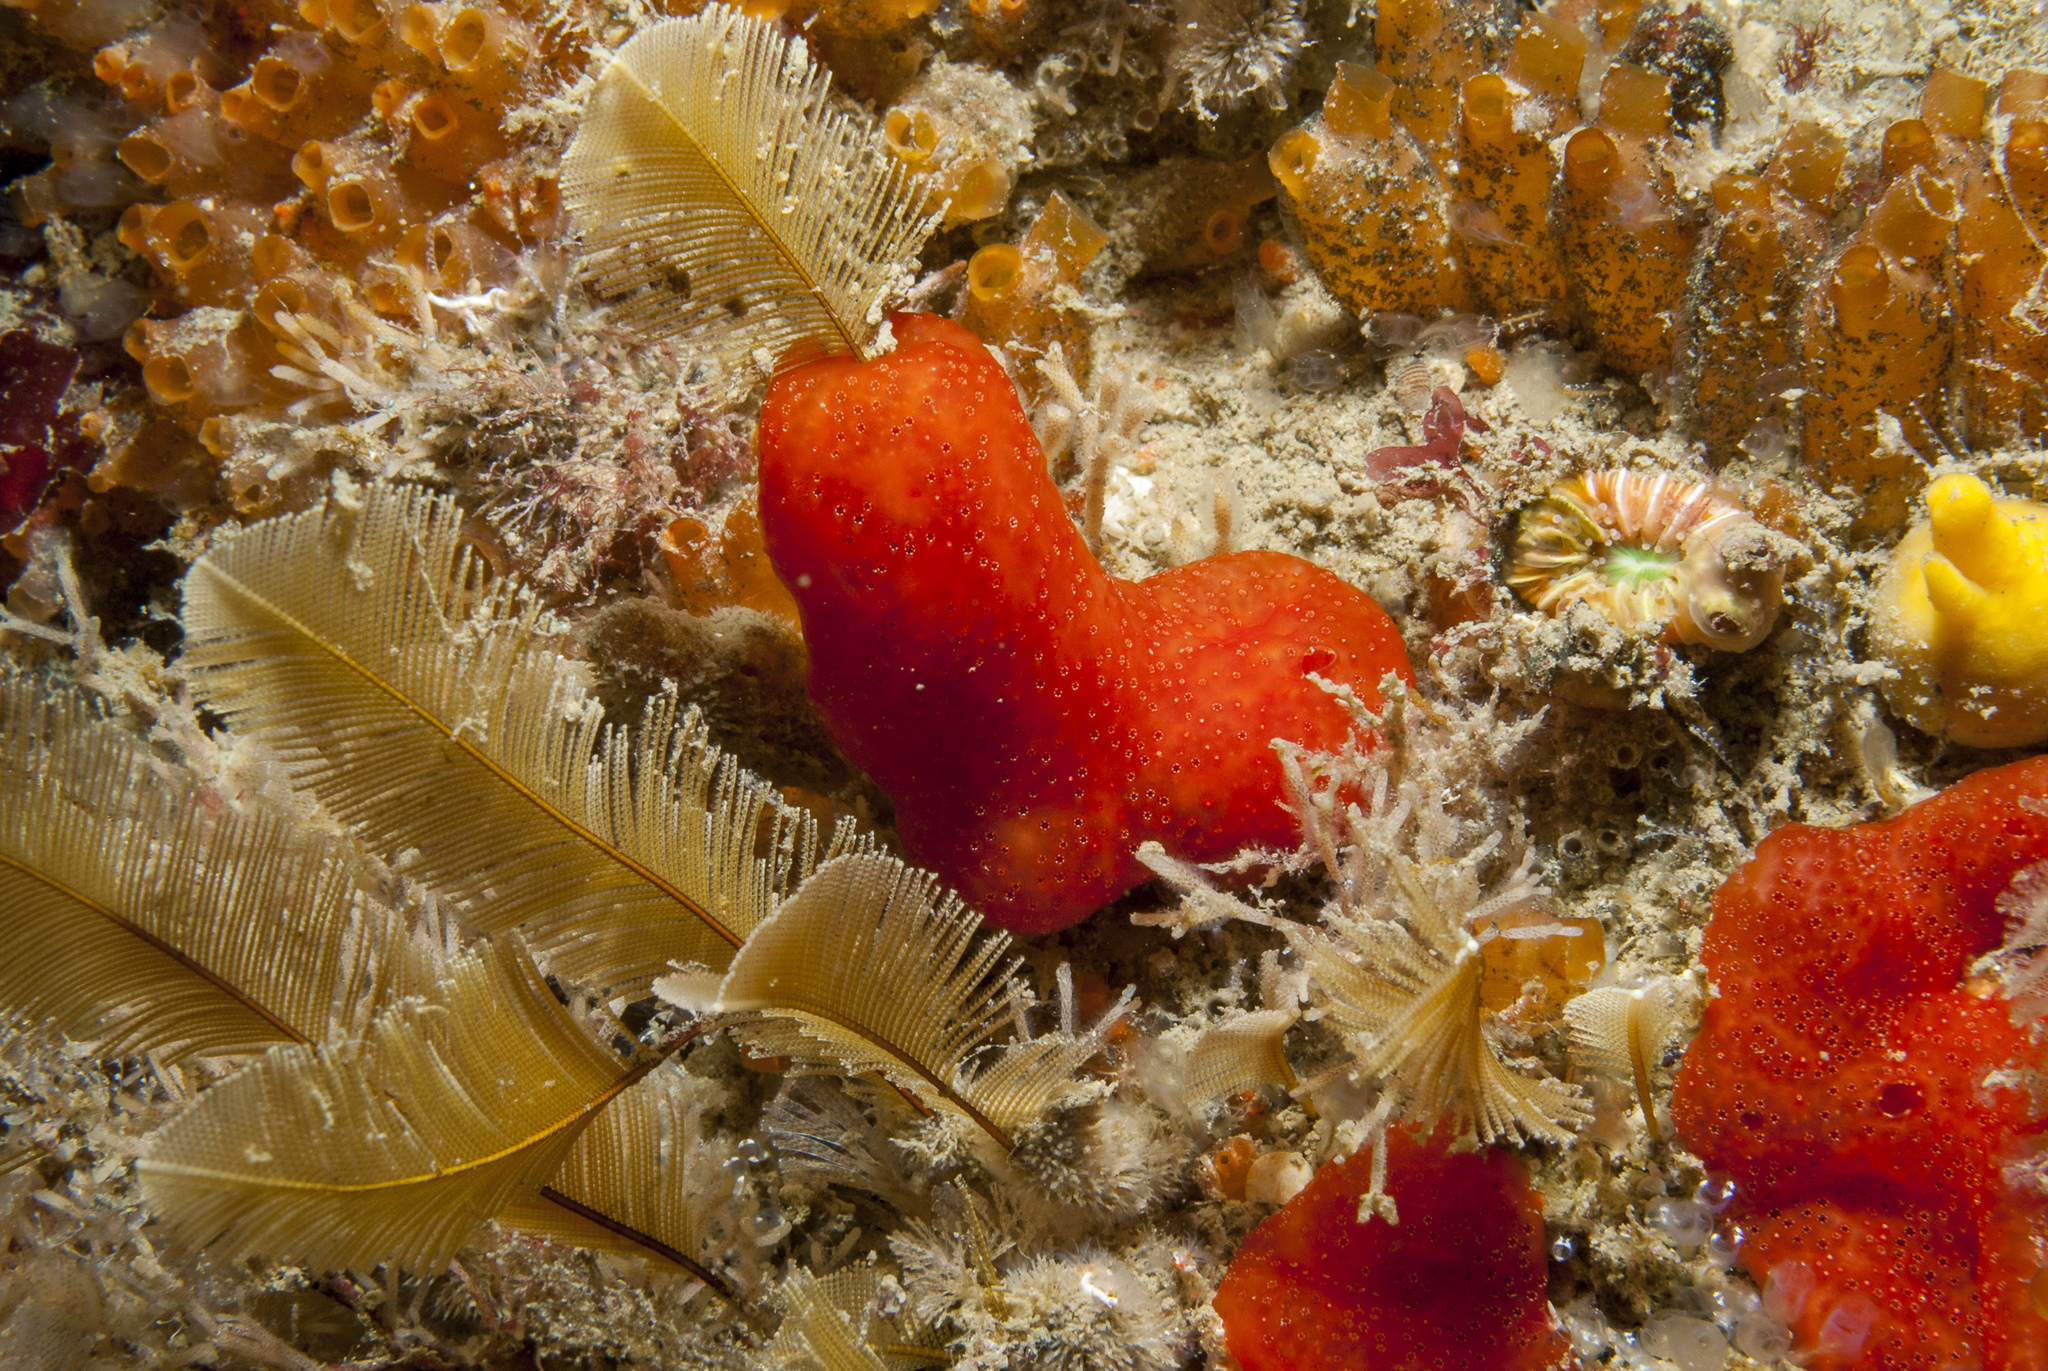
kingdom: Animalia
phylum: Chordata
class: Ascidiacea
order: Aplousobranchia
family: Didemnidae
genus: Polysyncraton
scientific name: Polysyncraton lacazei
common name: Colonial sea squirt
